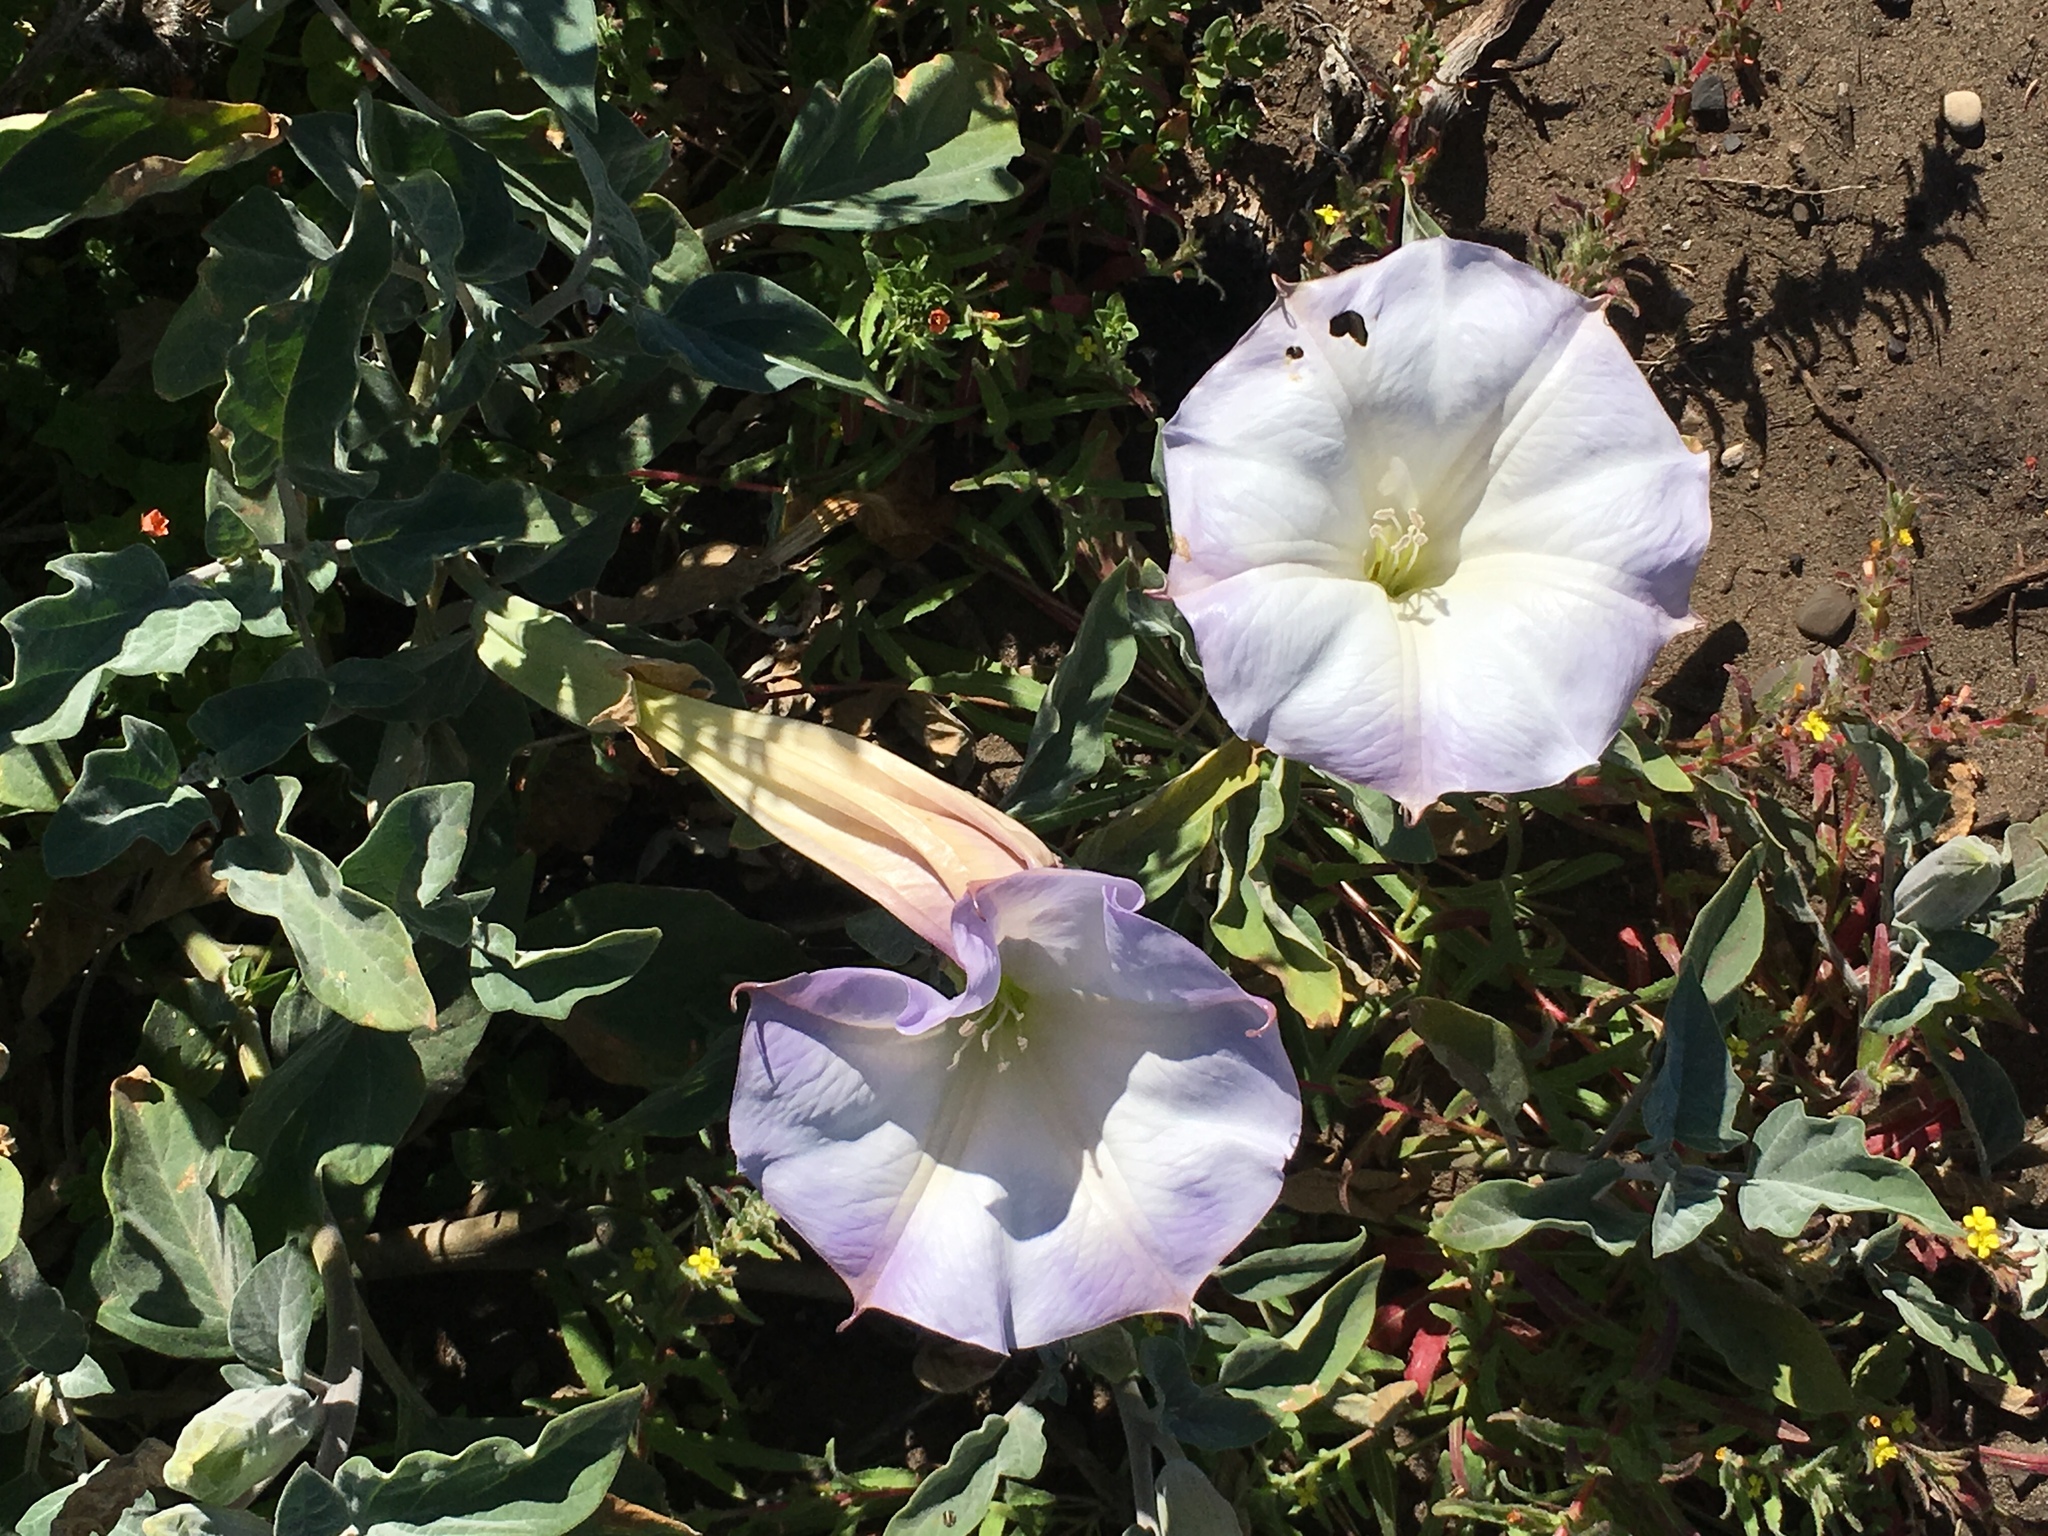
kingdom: Plantae
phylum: Tracheophyta
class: Magnoliopsida
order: Solanales
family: Solanaceae
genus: Datura
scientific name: Datura wrightii
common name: Sacred thorn-apple
